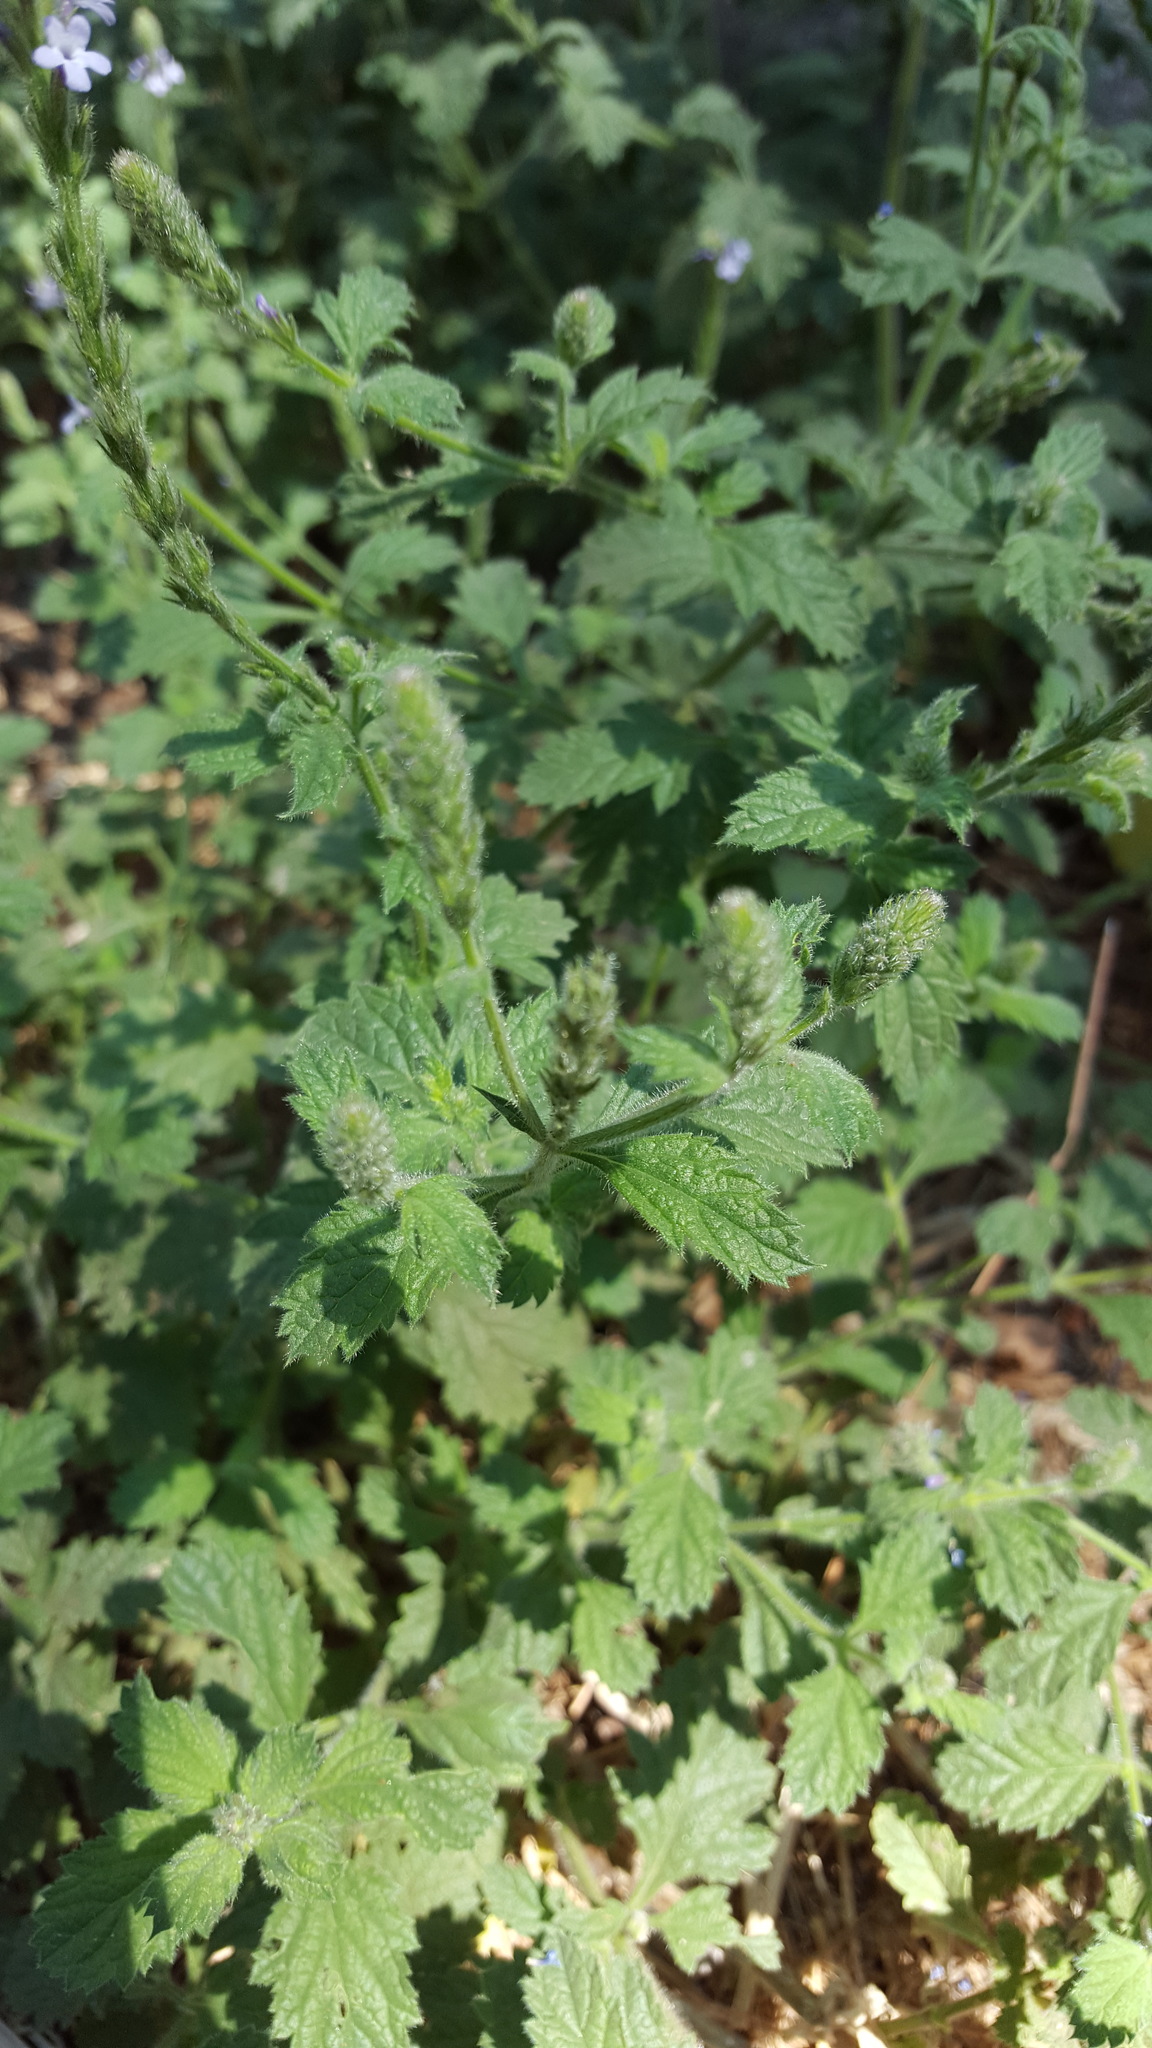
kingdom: Plantae
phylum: Tracheophyta
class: Magnoliopsida
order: Lamiales
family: Verbenaceae
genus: Verbena
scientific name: Verbena lasiostachys
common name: Vervain
